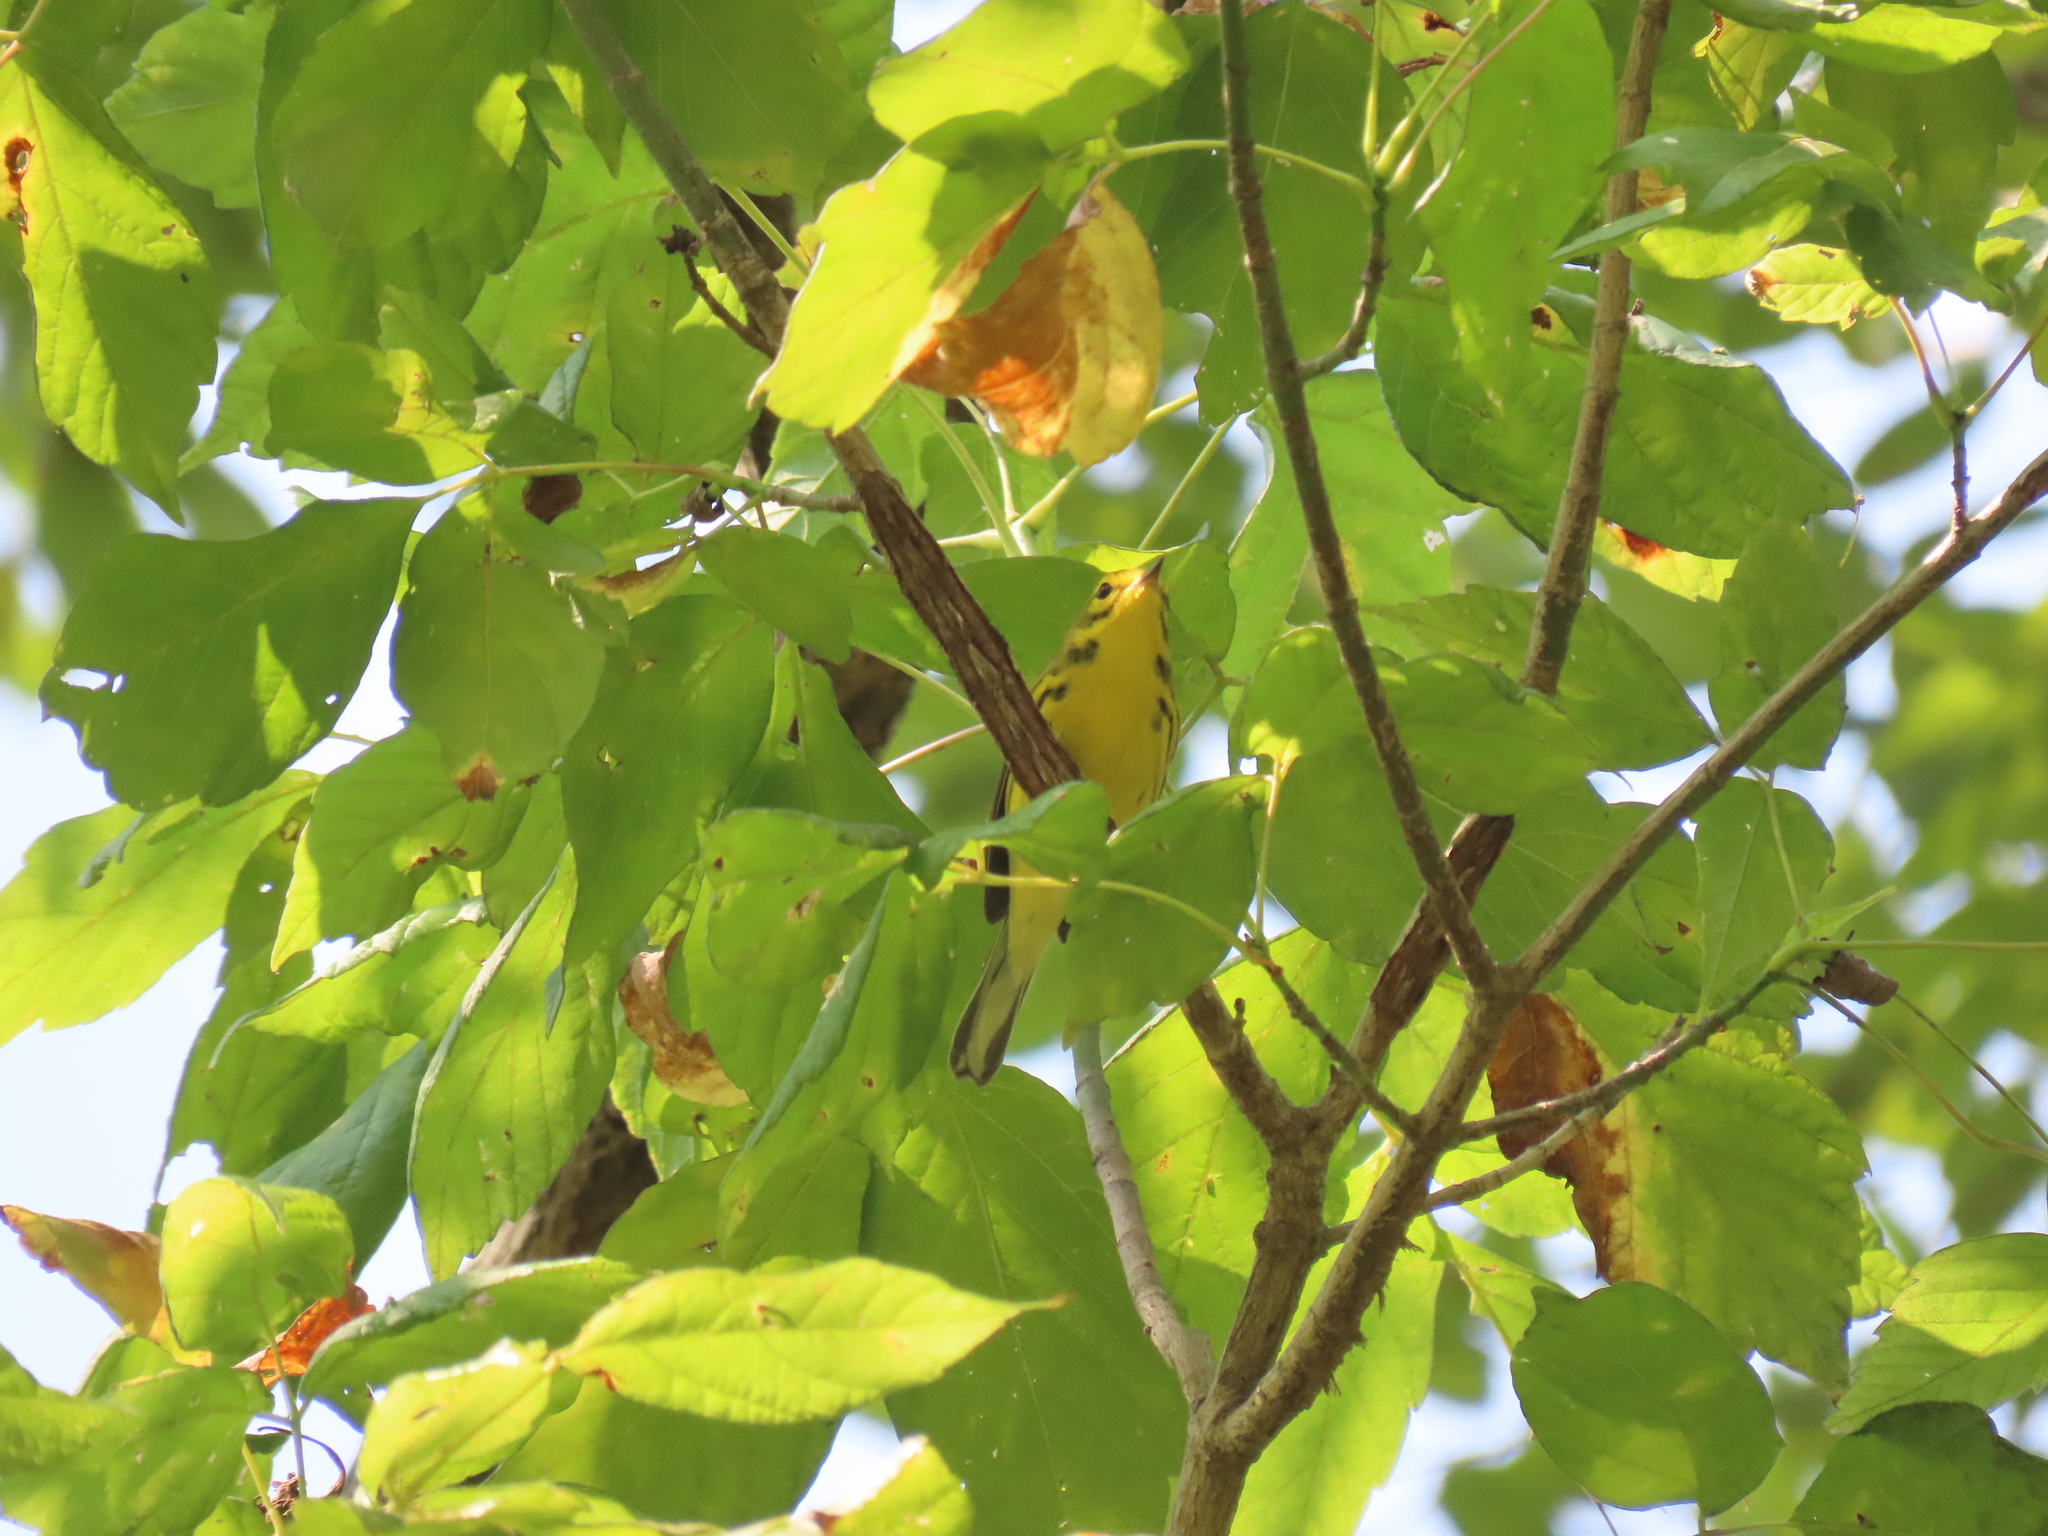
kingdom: Animalia
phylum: Chordata
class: Aves
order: Passeriformes
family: Parulidae
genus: Setophaga
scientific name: Setophaga discolor
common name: Prairie warbler
